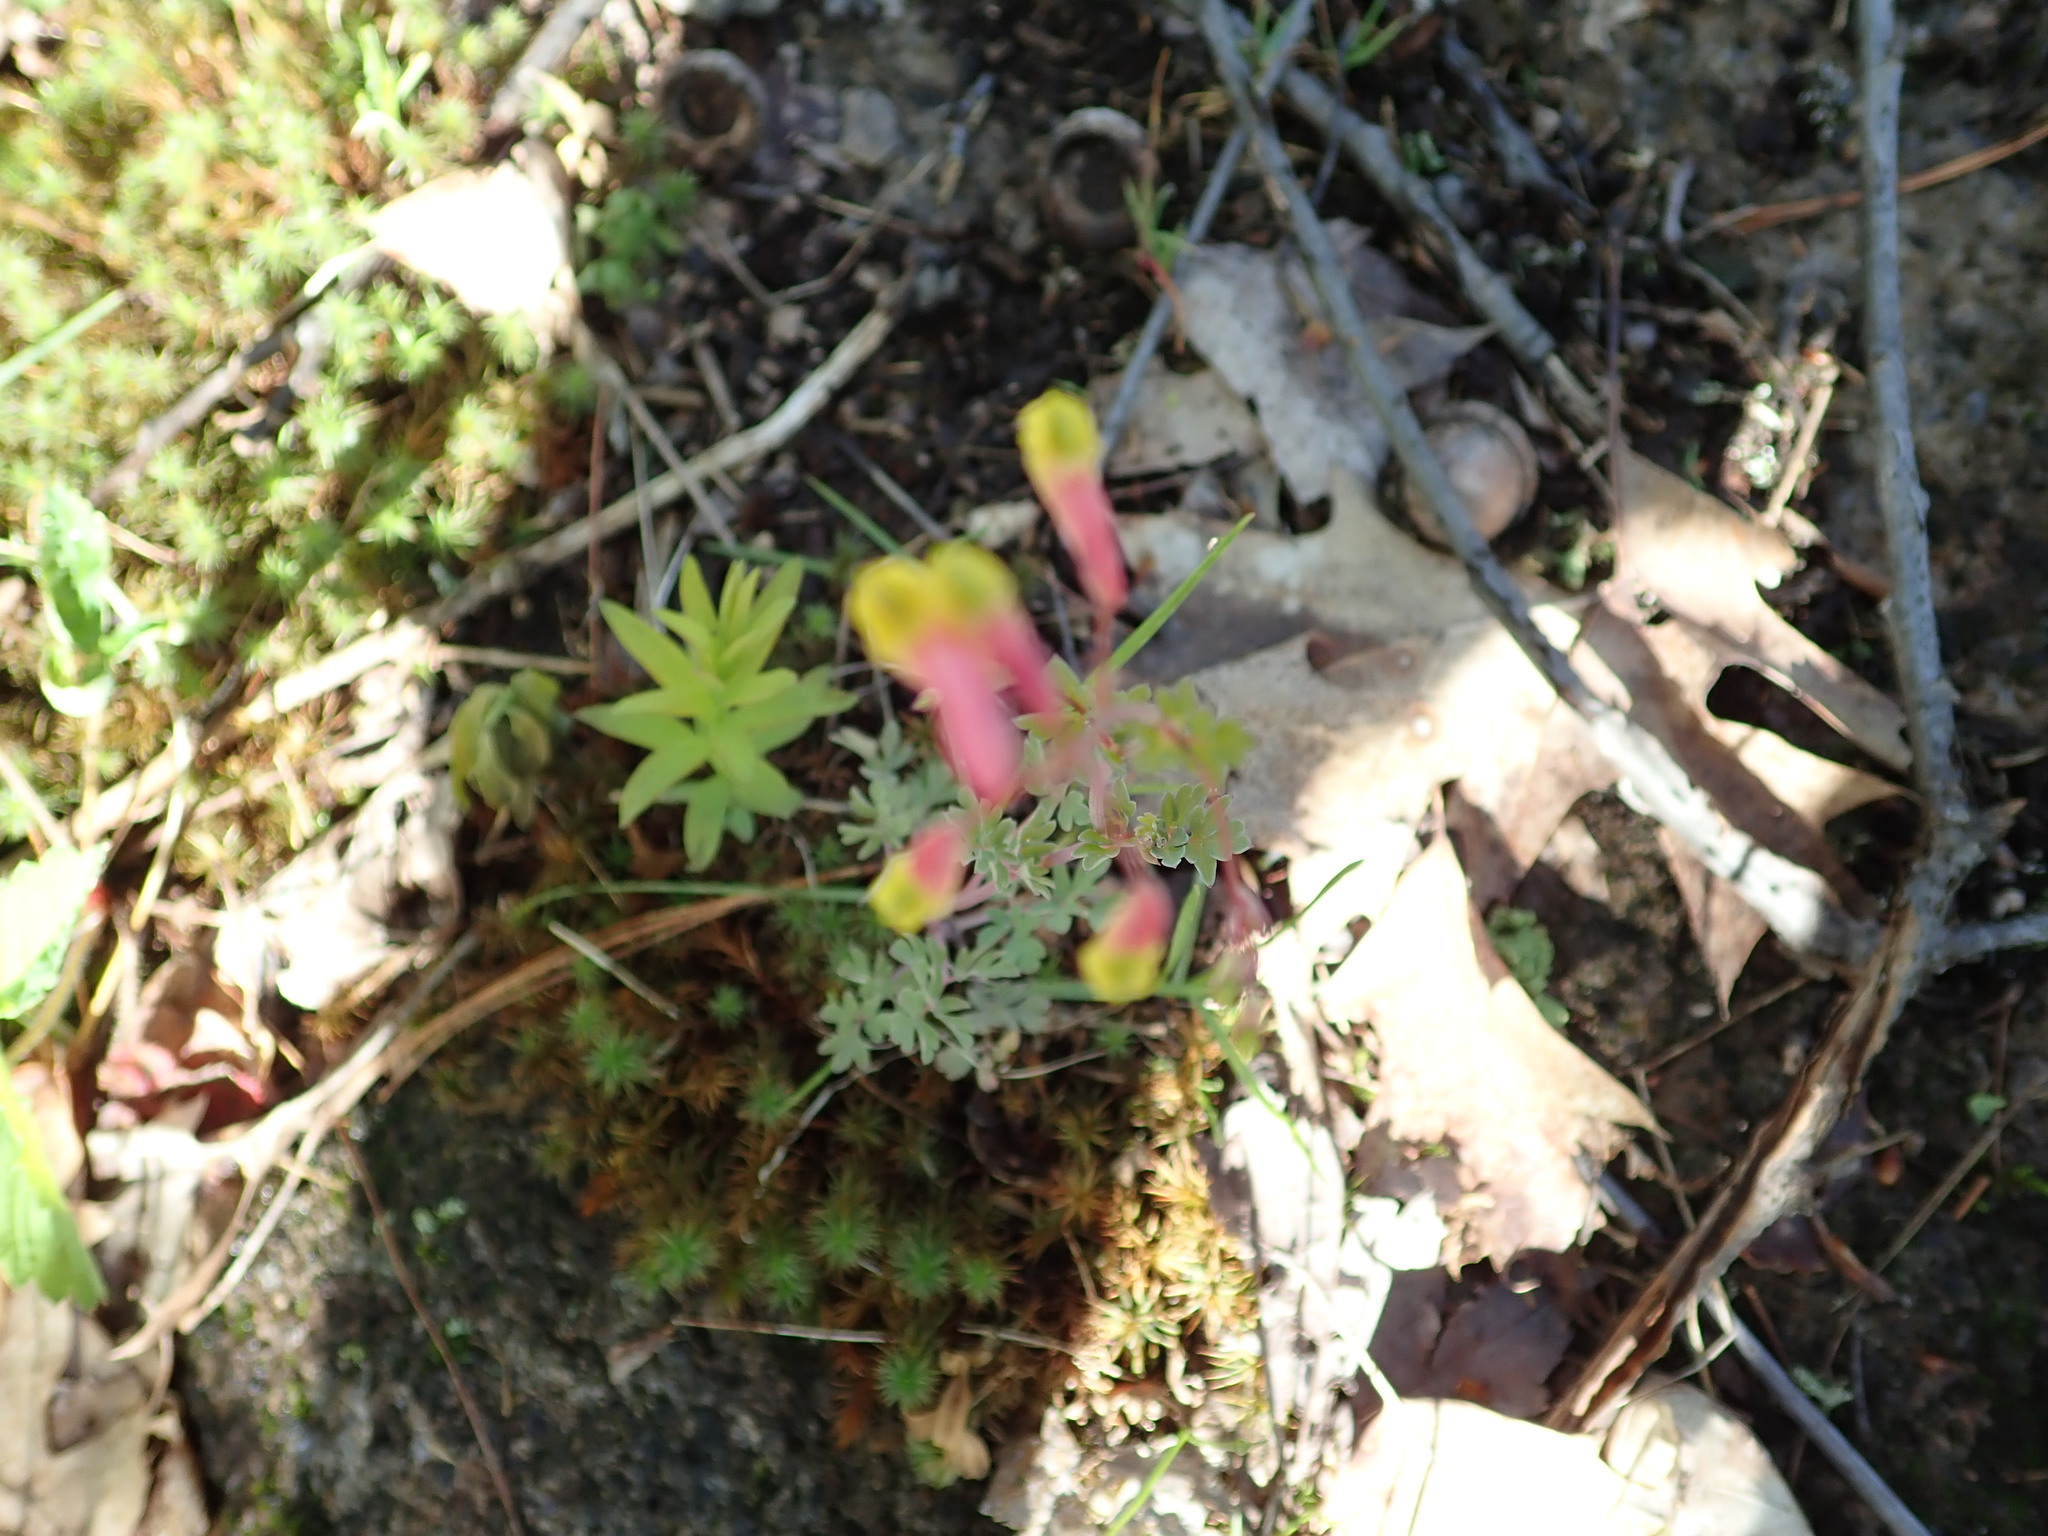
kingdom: Plantae
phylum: Tracheophyta
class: Magnoliopsida
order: Ranunculales
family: Papaveraceae
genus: Capnoides
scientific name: Capnoides sempervirens
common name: Rock harlequin
